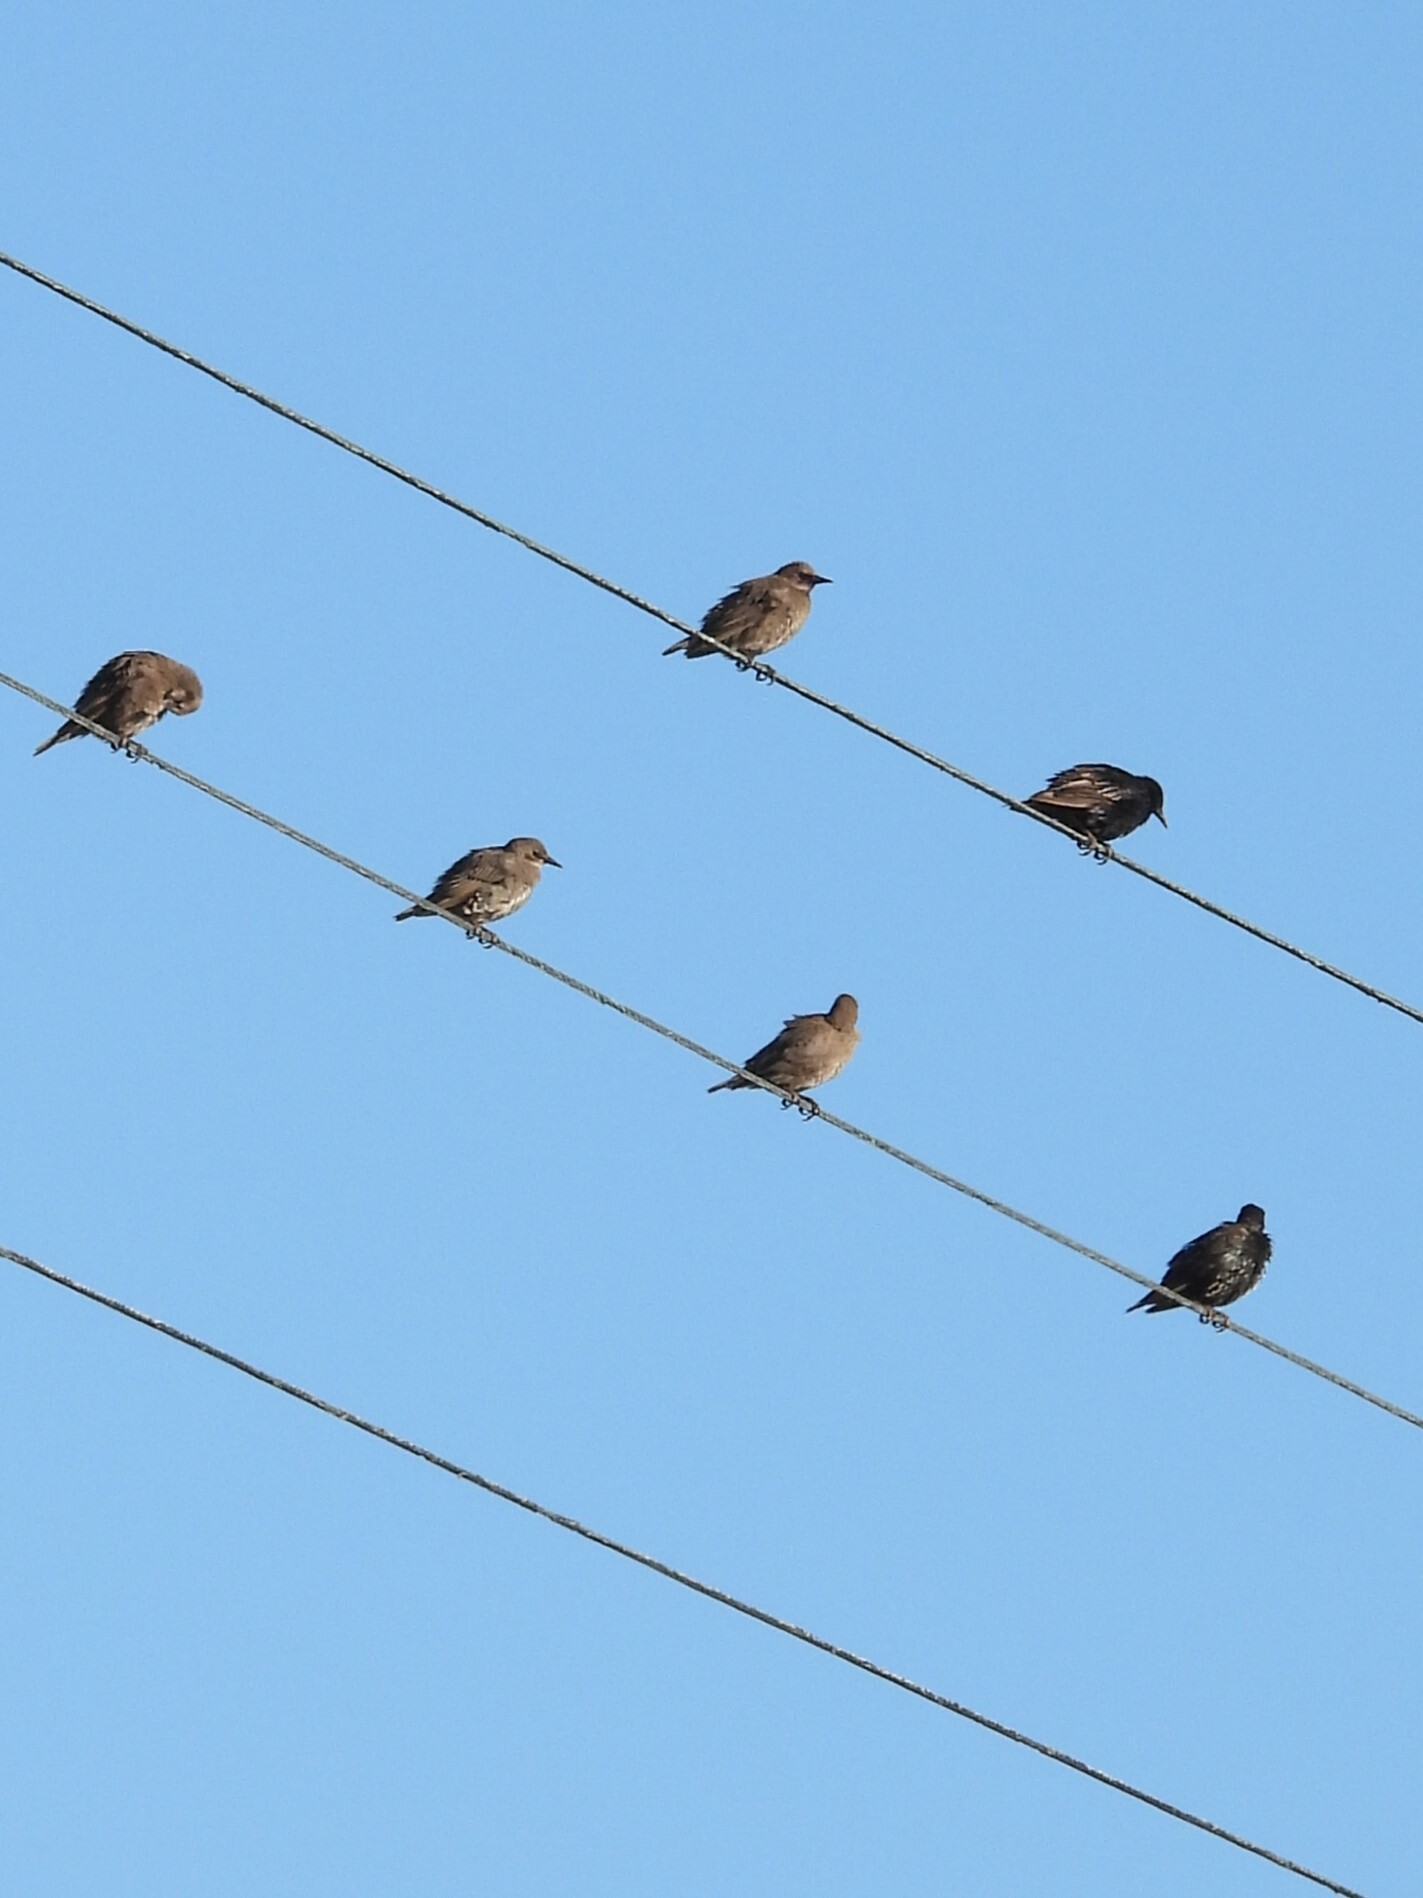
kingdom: Animalia
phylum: Chordata
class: Aves
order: Passeriformes
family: Sturnidae
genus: Sturnus
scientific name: Sturnus vulgaris
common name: Common starling
